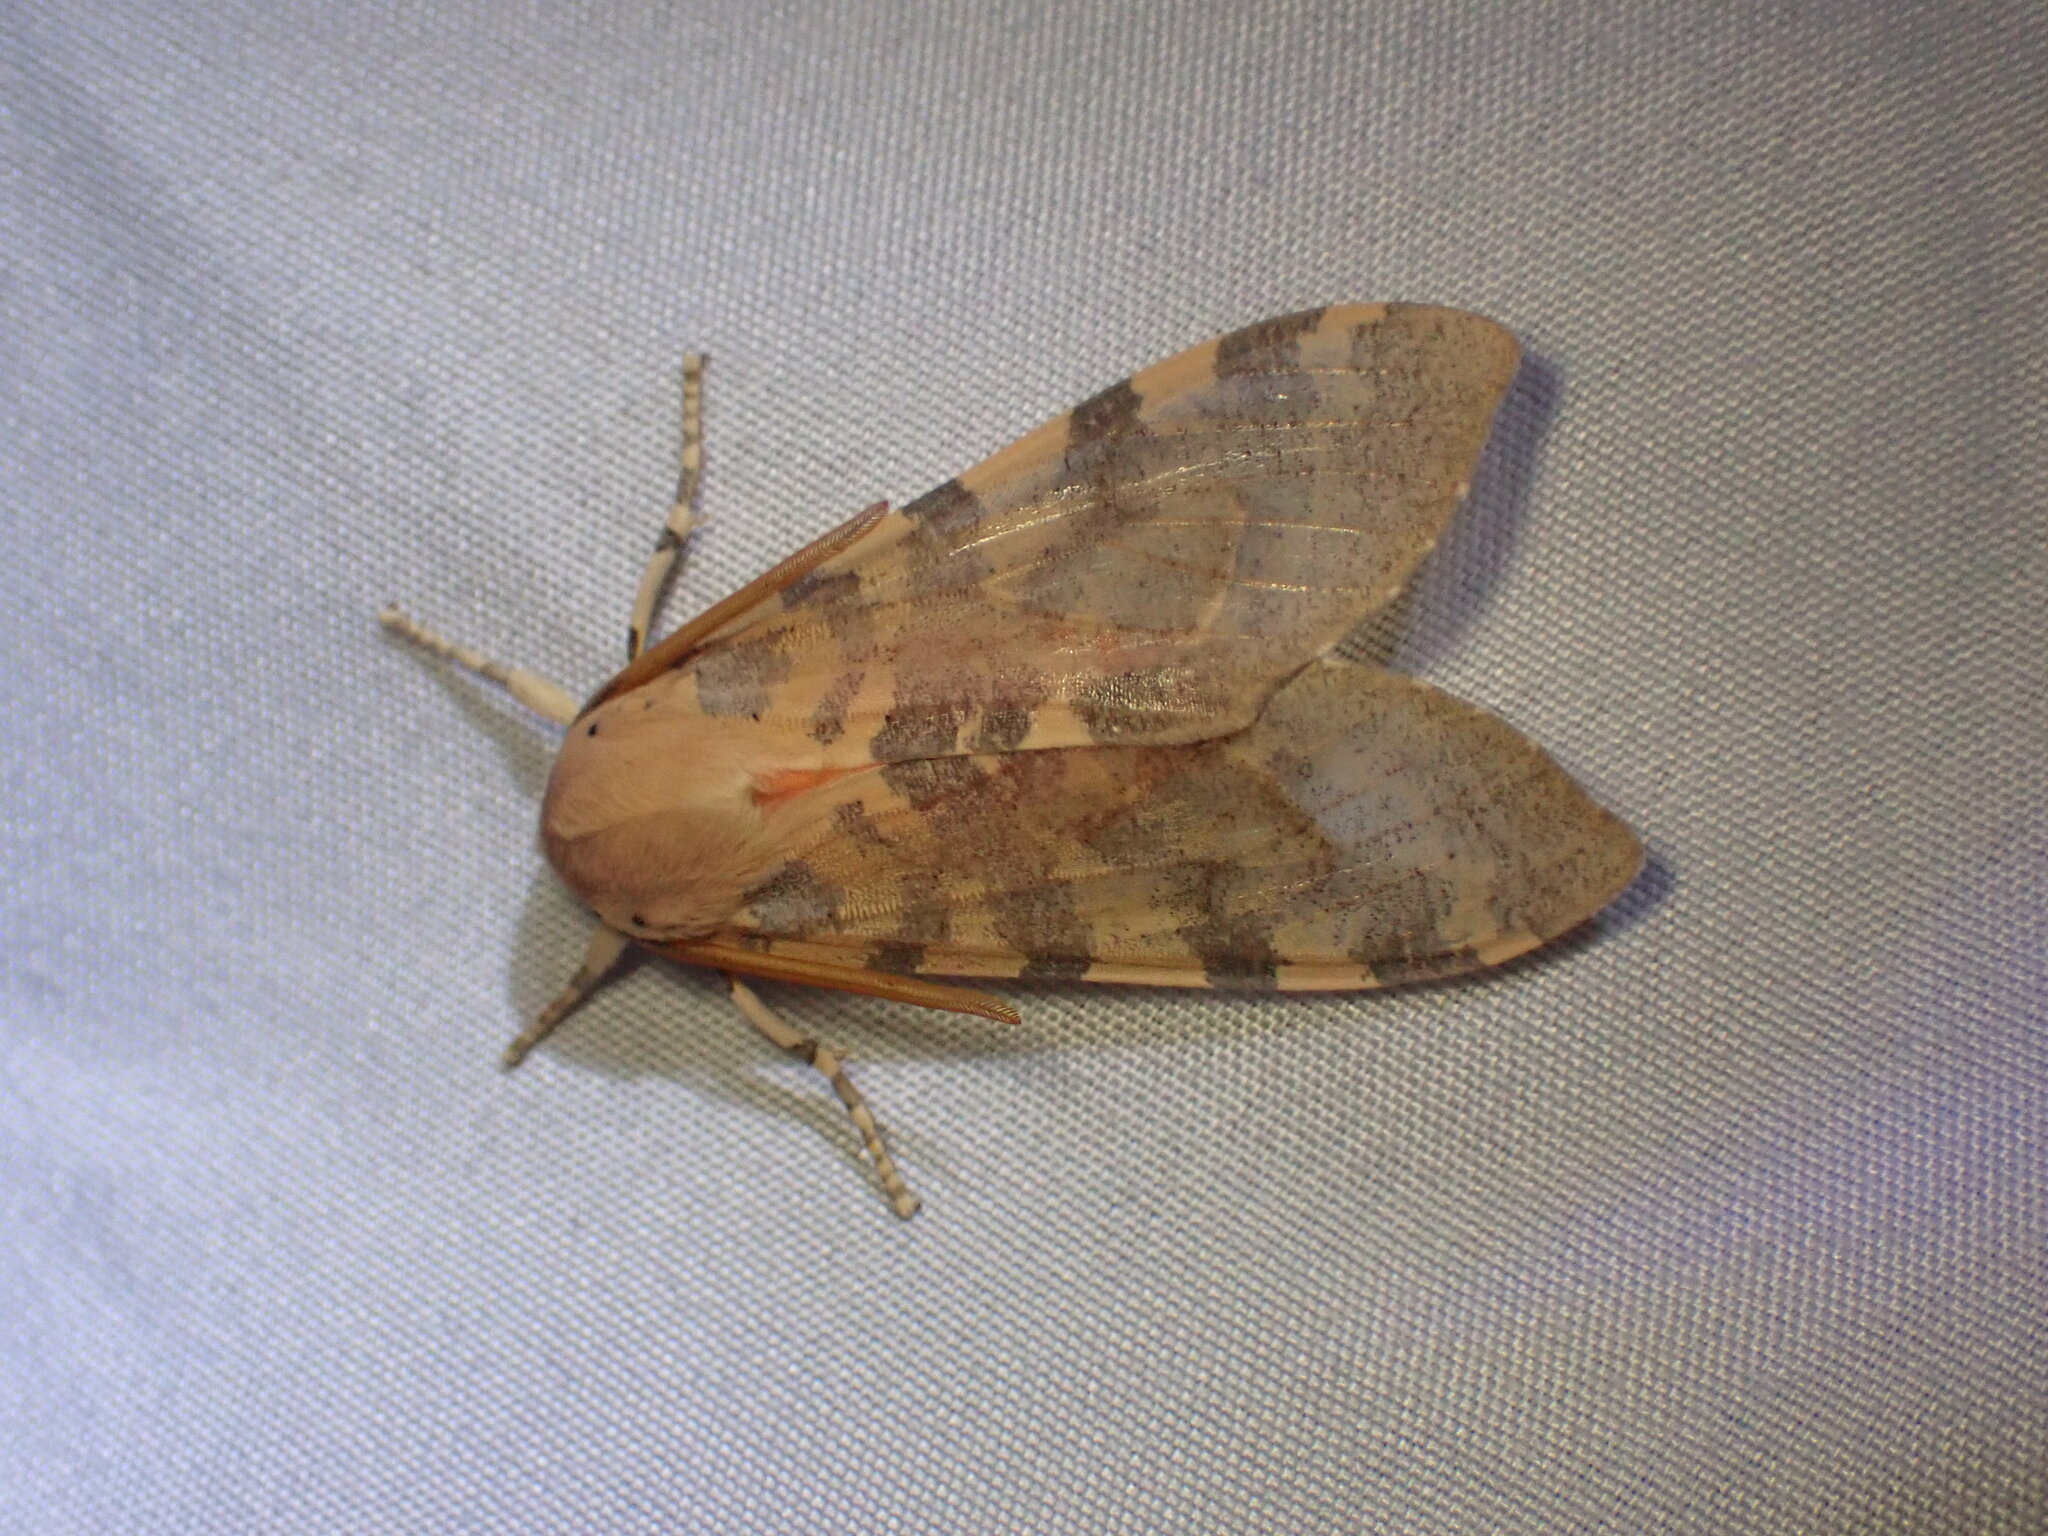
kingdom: Animalia
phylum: Arthropoda
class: Insecta
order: Lepidoptera
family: Erebidae
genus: Hemihyalea
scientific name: Hemihyalea edwardsii
